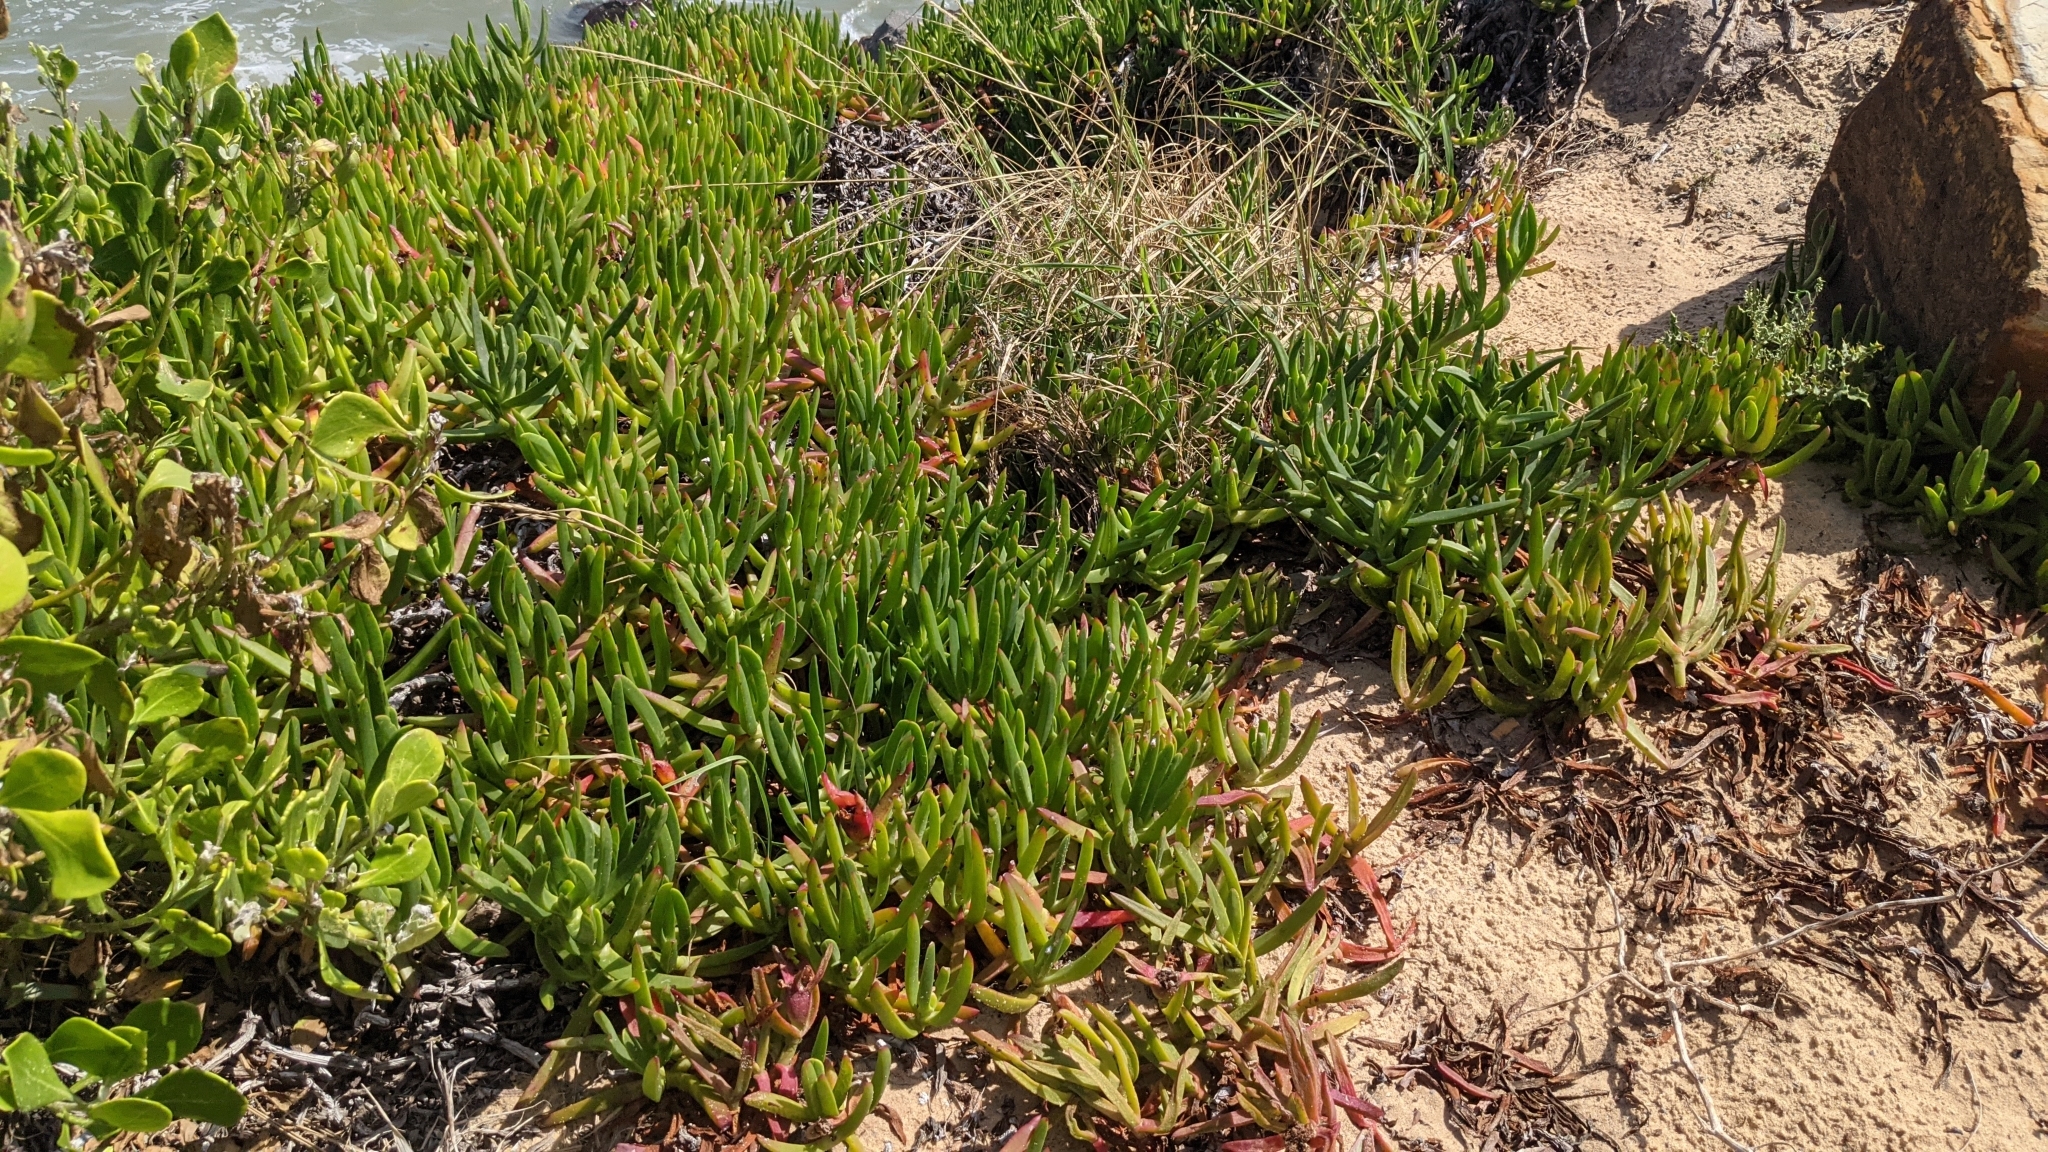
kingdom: Plantae
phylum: Tracheophyta
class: Magnoliopsida
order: Caryophyllales
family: Aizoaceae
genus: Carpobrotus
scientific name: Carpobrotus glaucescens
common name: Angular sea-fig
